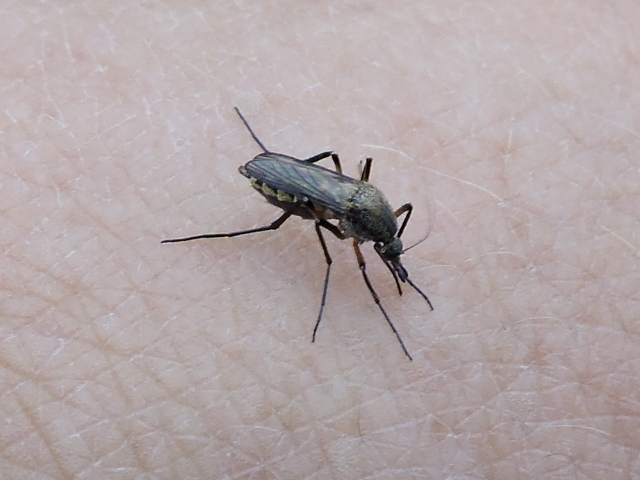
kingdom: Animalia
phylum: Arthropoda
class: Insecta
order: Diptera
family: Culicidae
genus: Psorophora
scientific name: Psorophora cyanescens
